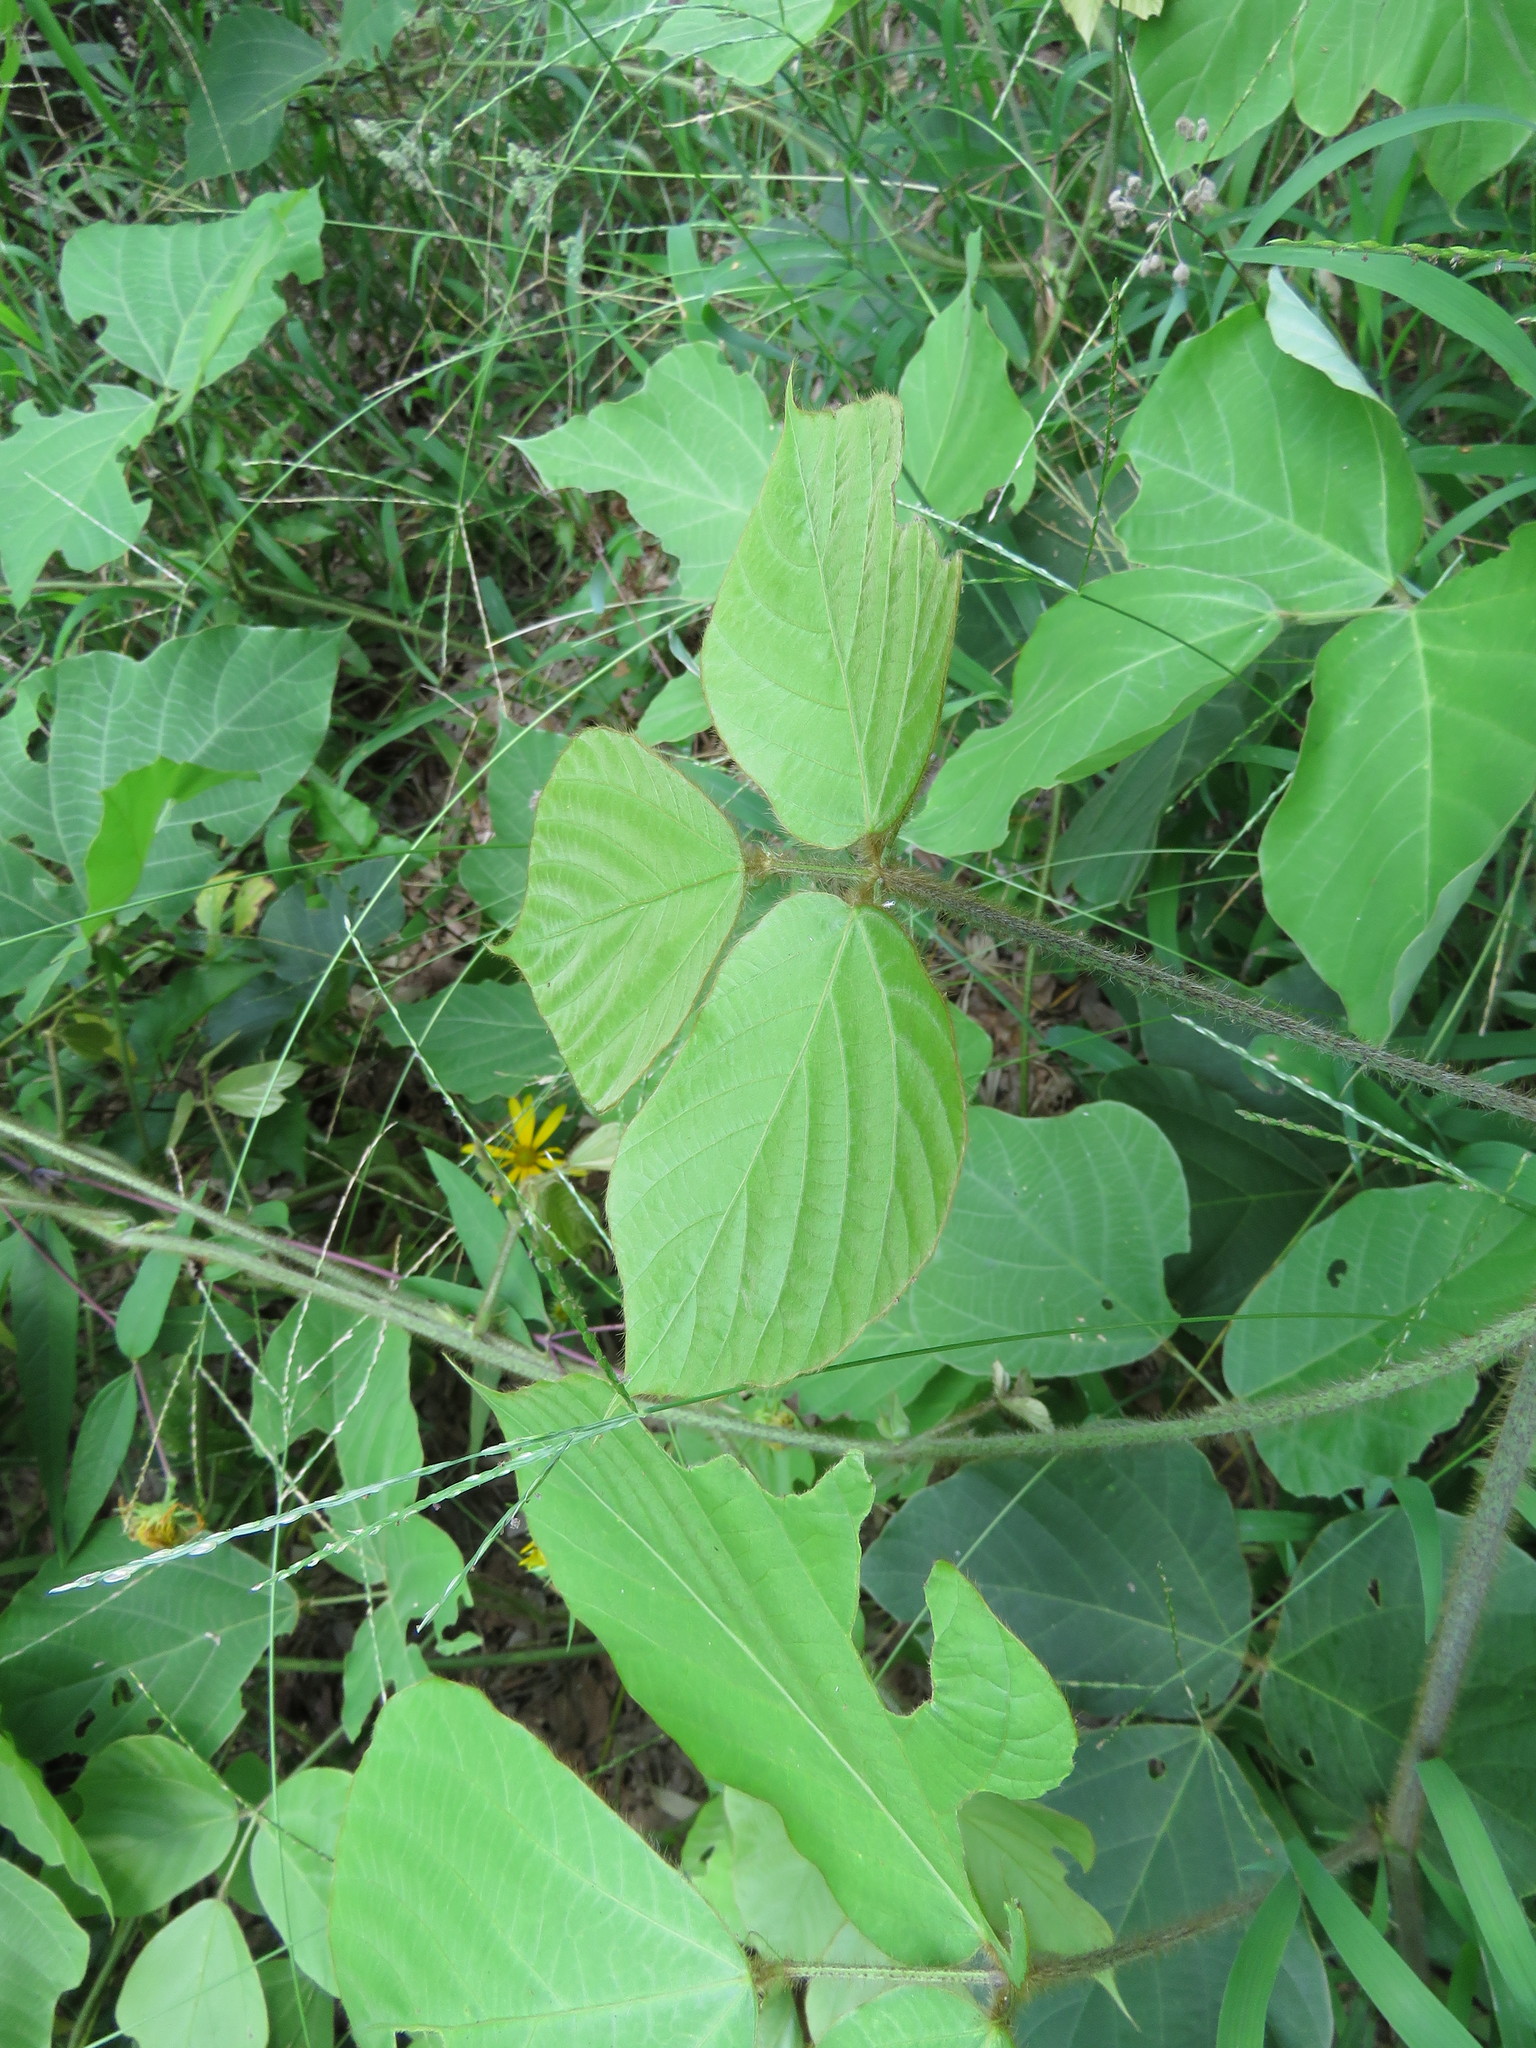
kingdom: Plantae
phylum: Tracheophyta
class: Magnoliopsida
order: Fabales
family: Fabaceae
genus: Pueraria
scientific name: Pueraria montana
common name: Kudzu
